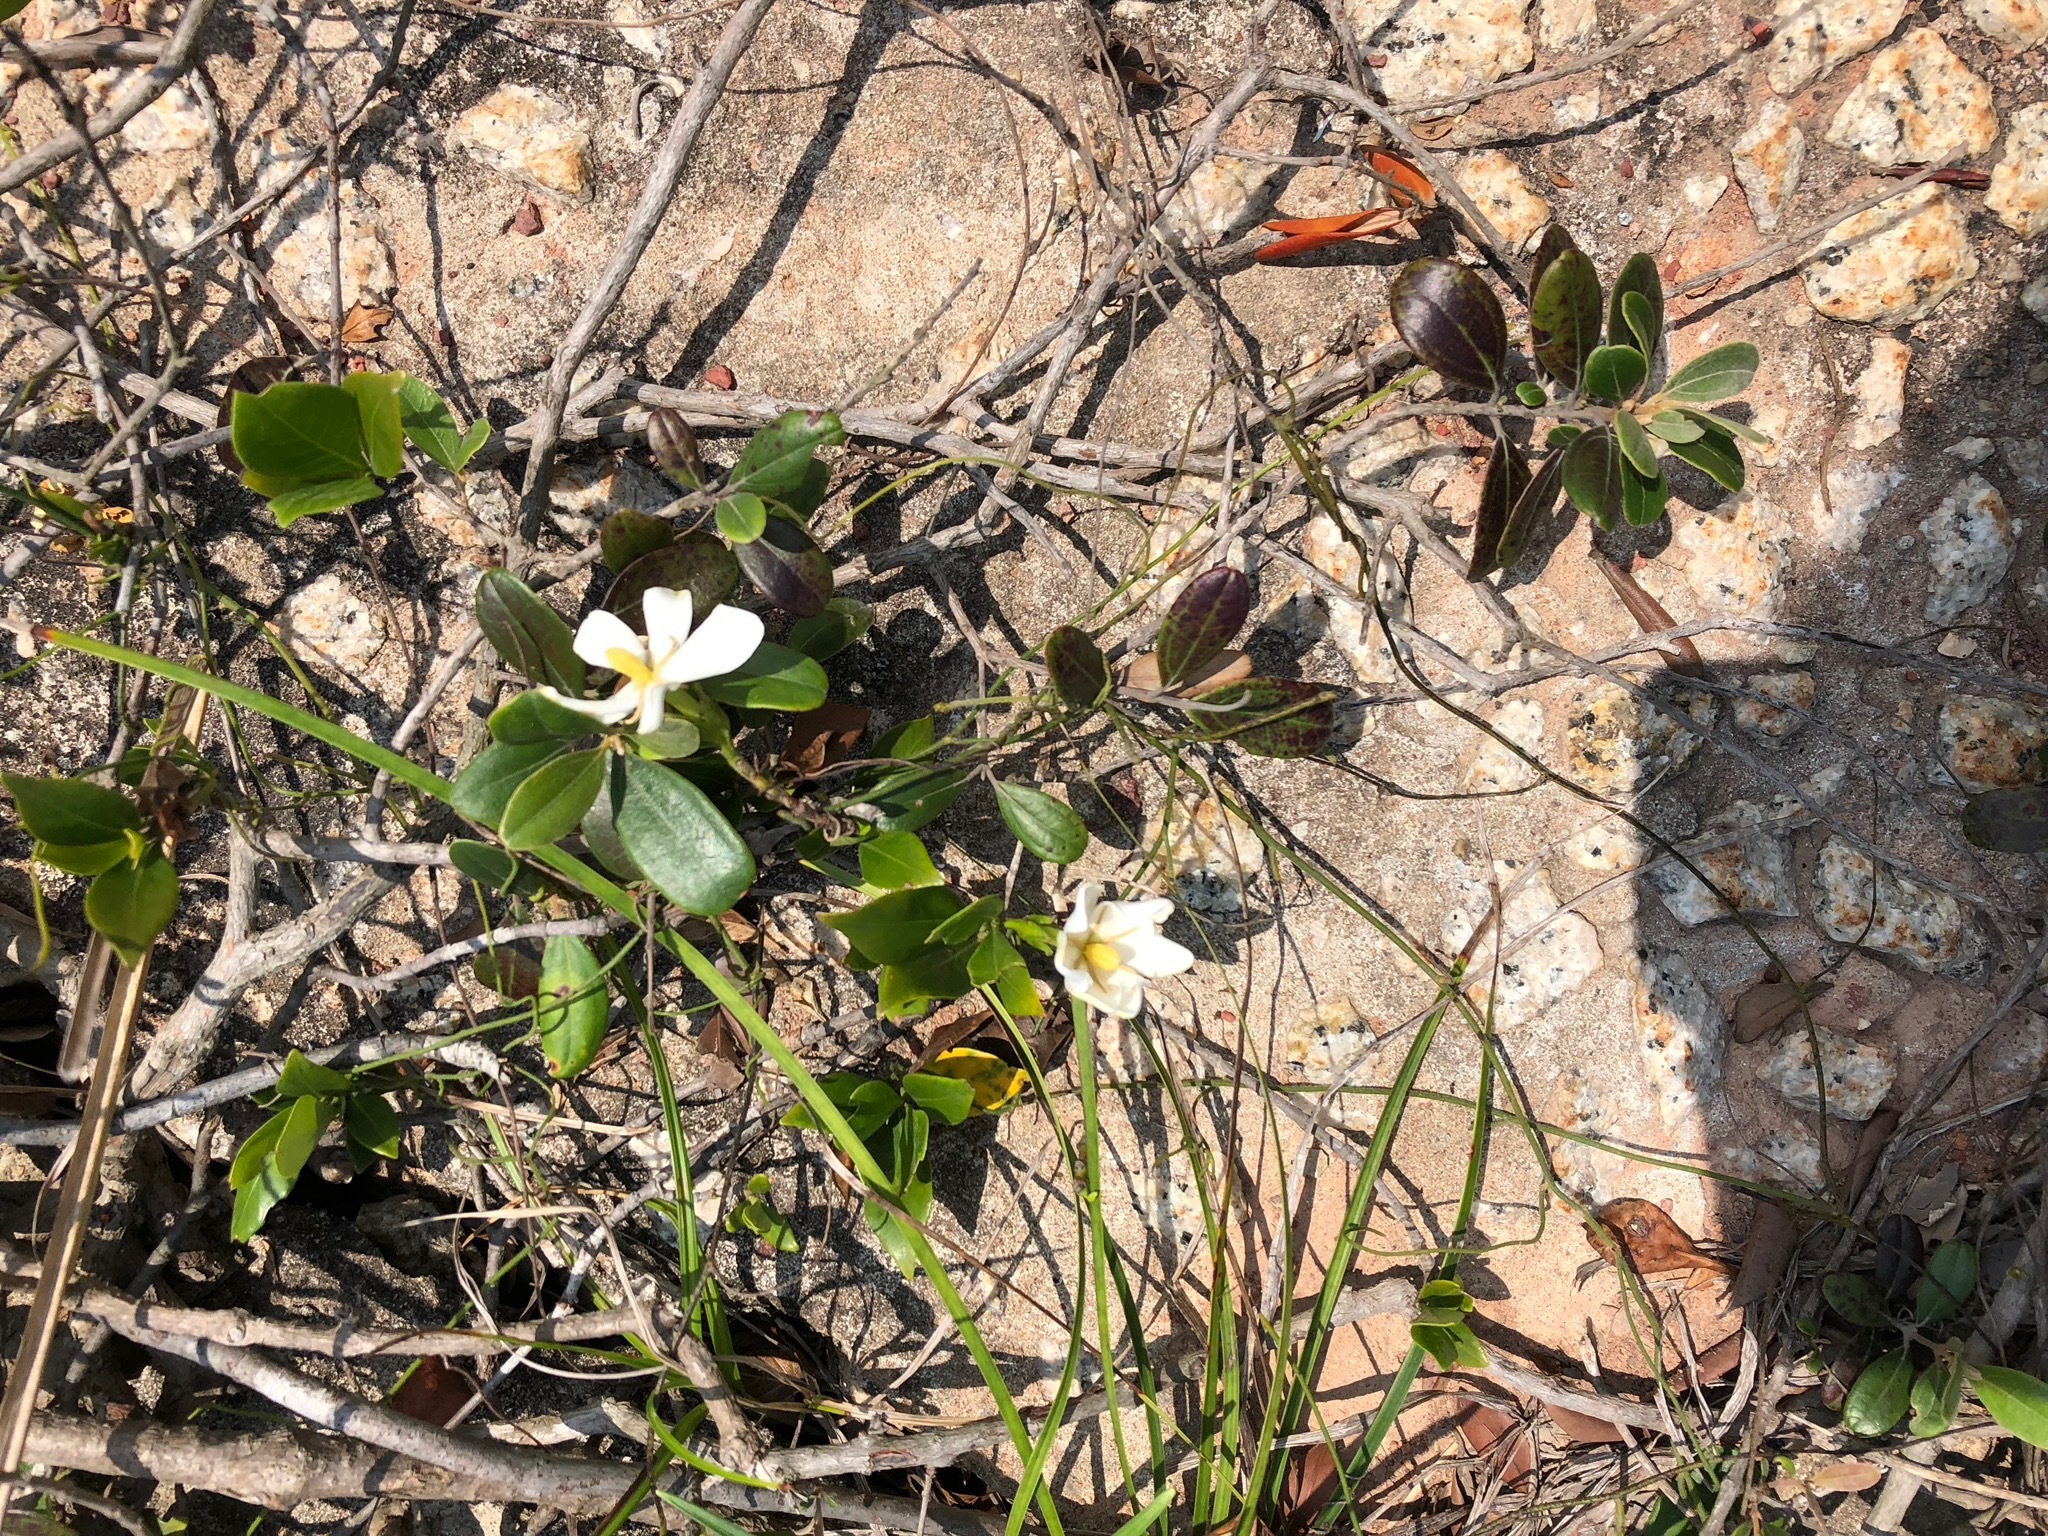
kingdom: Plantae
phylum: Tracheophyta
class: Magnoliopsida
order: Gentianales
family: Rubiaceae
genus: Gardenia
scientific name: Gardenia jasminoides
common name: Cape-jasmine
